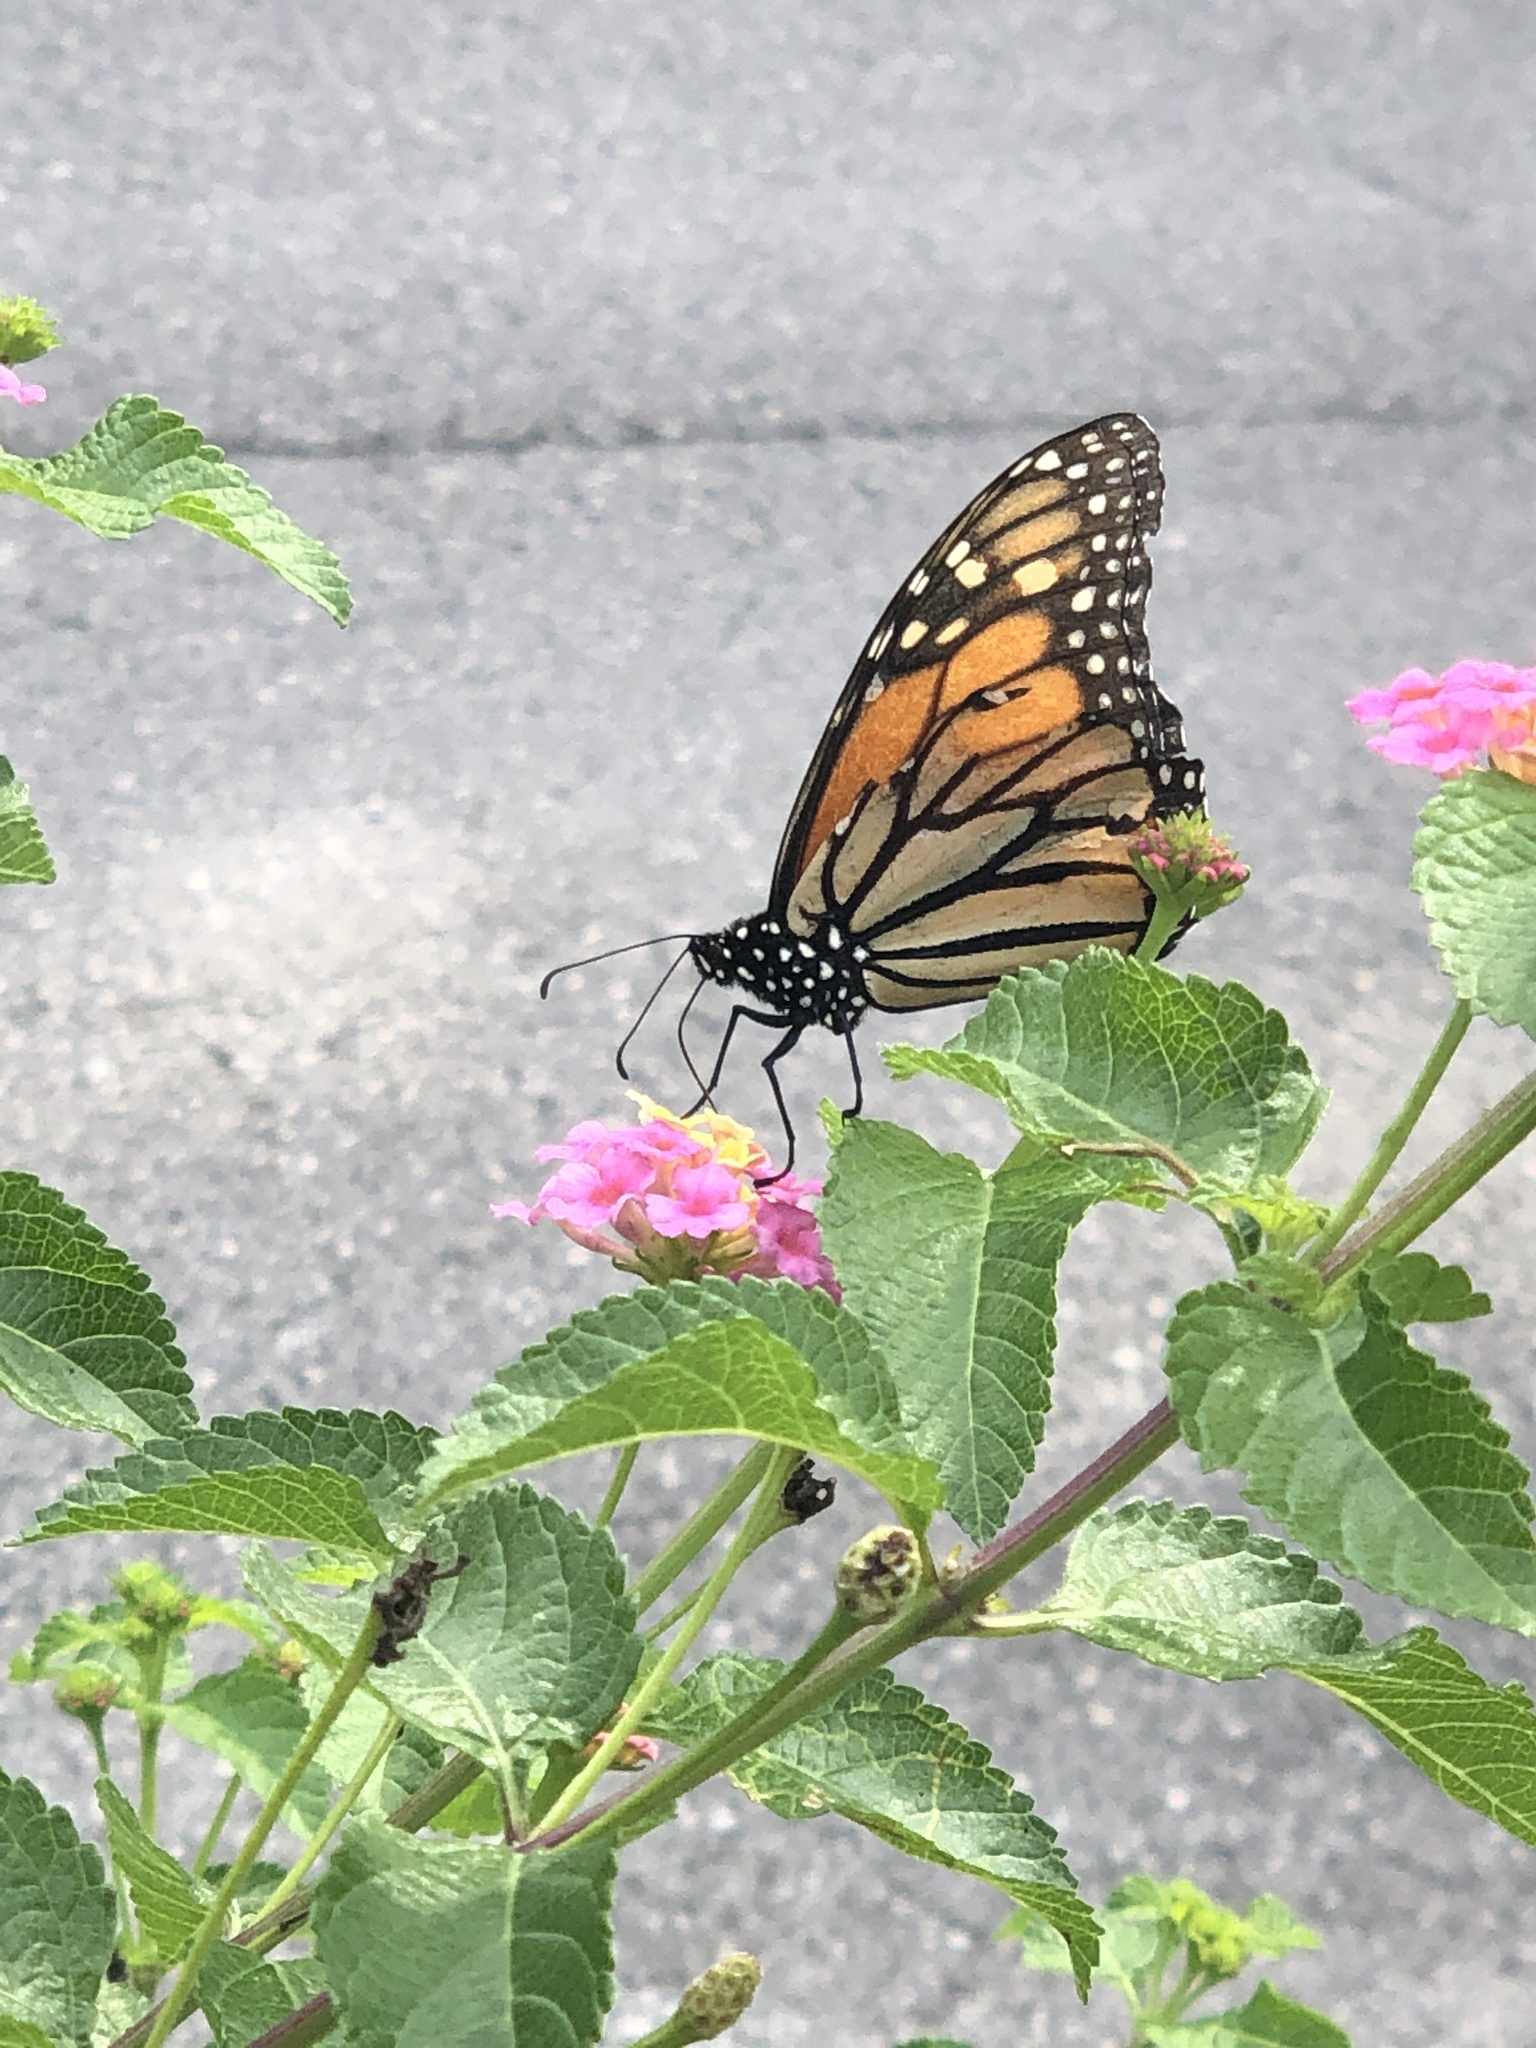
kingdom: Animalia
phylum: Arthropoda
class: Insecta
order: Lepidoptera
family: Nymphalidae
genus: Danaus
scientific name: Danaus plexippus
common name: Monarch
